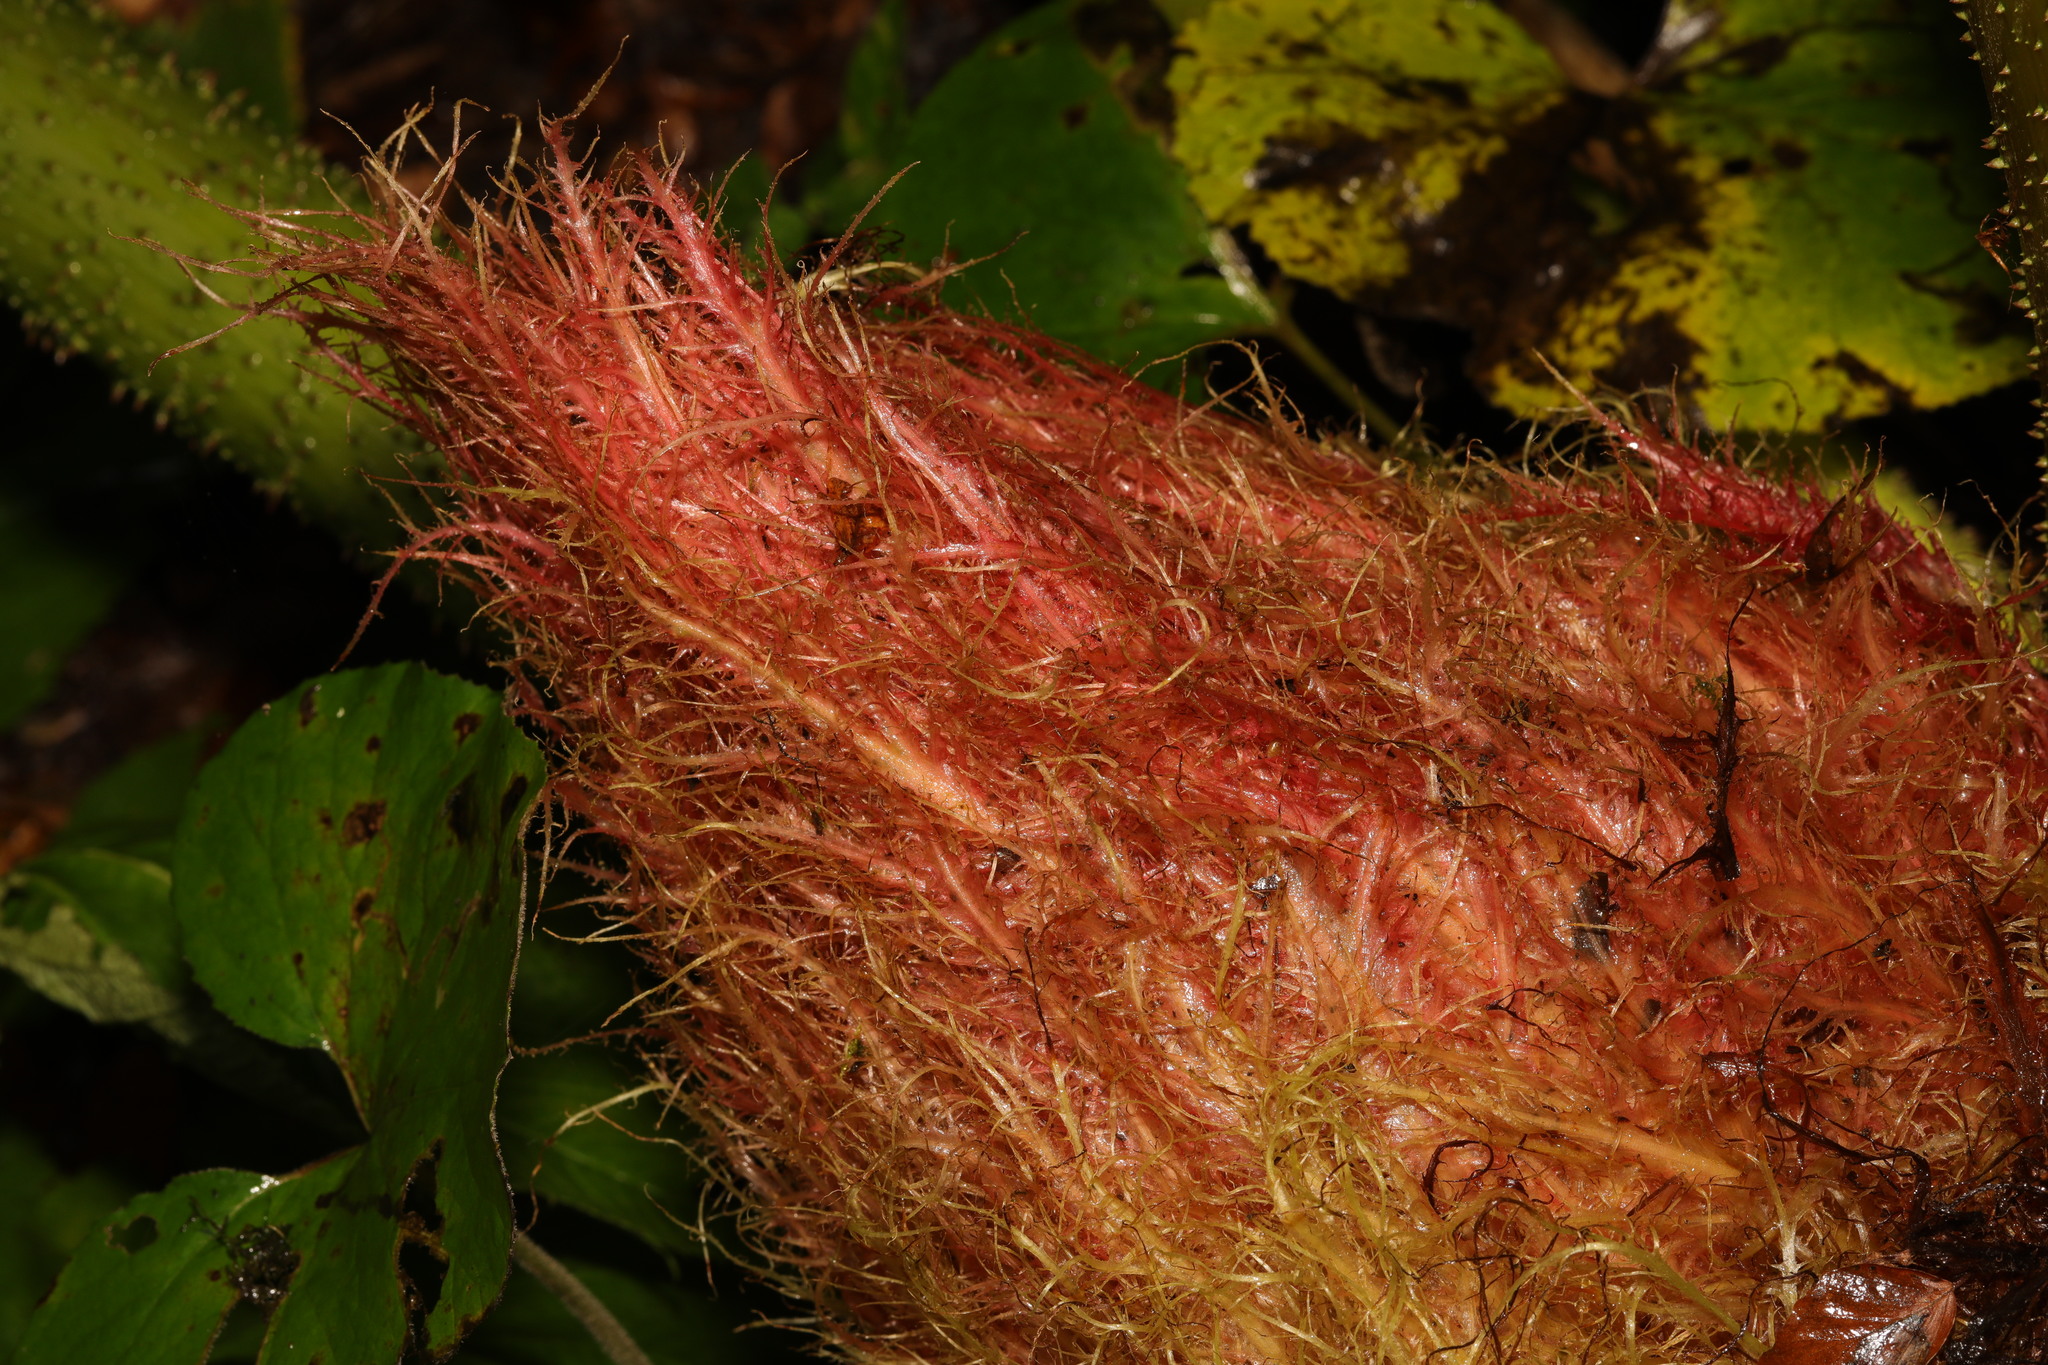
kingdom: Plantae
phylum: Tracheophyta
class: Magnoliopsida
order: Gunnerales
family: Gunneraceae
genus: Gunnera
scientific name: Gunnera tinctoria
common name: Giant-rhubarb
